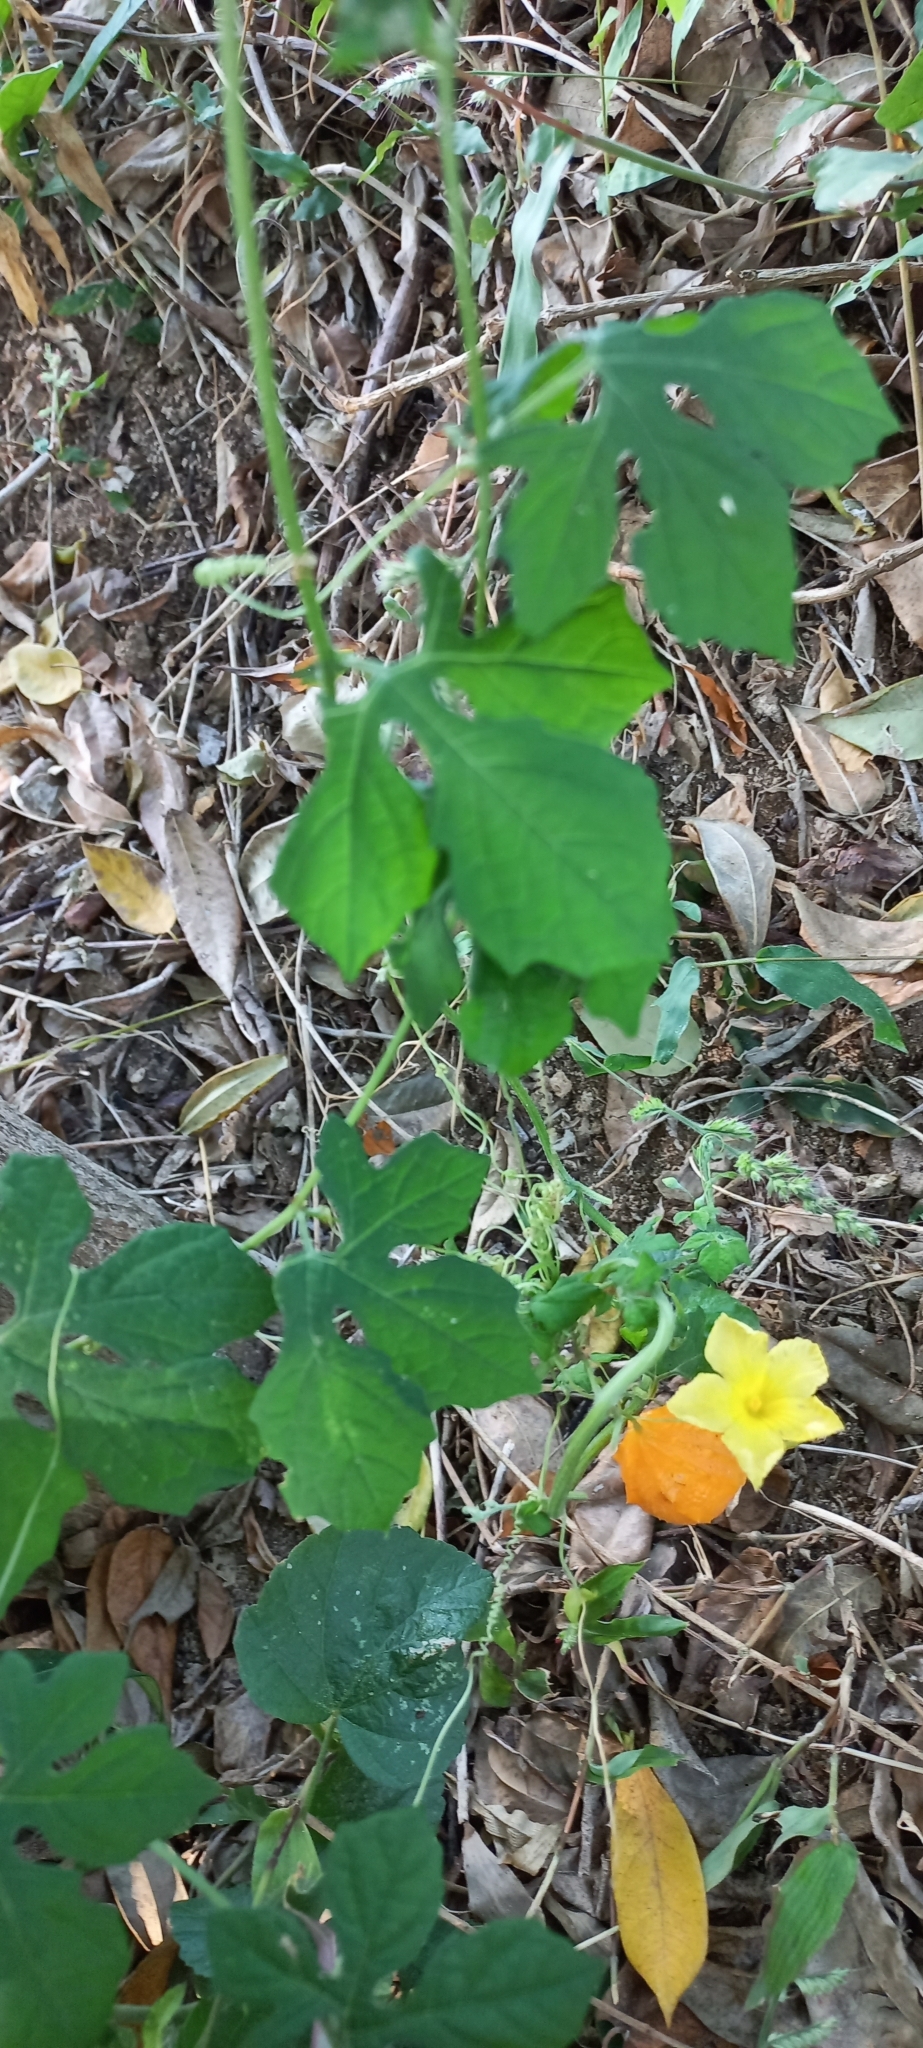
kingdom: Plantae
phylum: Tracheophyta
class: Magnoliopsida
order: Cucurbitales
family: Cucurbitaceae
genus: Momordica
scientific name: Momordica charantia
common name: Balsampear
